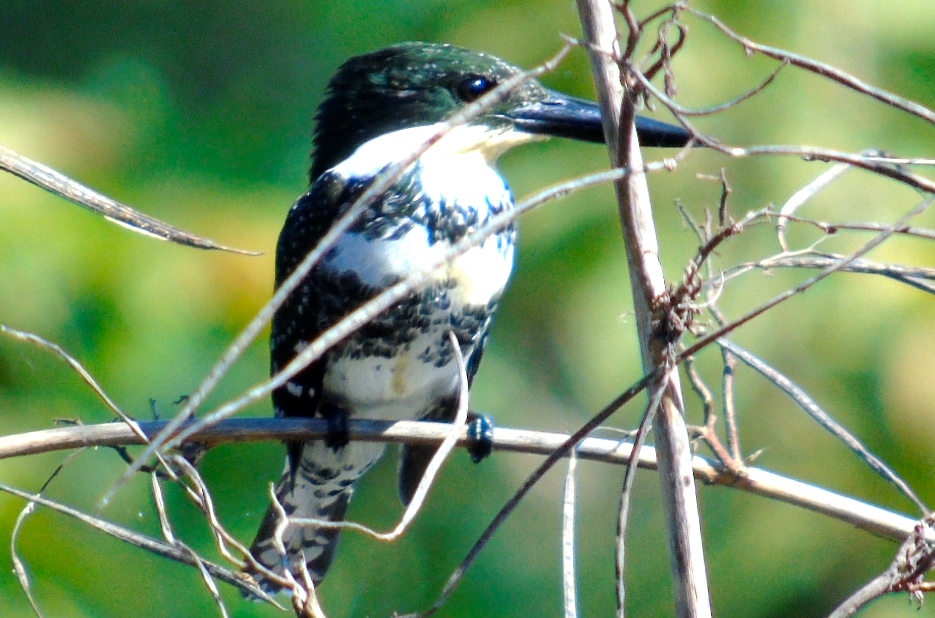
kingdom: Animalia
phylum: Chordata
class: Aves
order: Coraciiformes
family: Alcedinidae
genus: Chloroceryle
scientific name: Chloroceryle americana
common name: Green kingfisher
